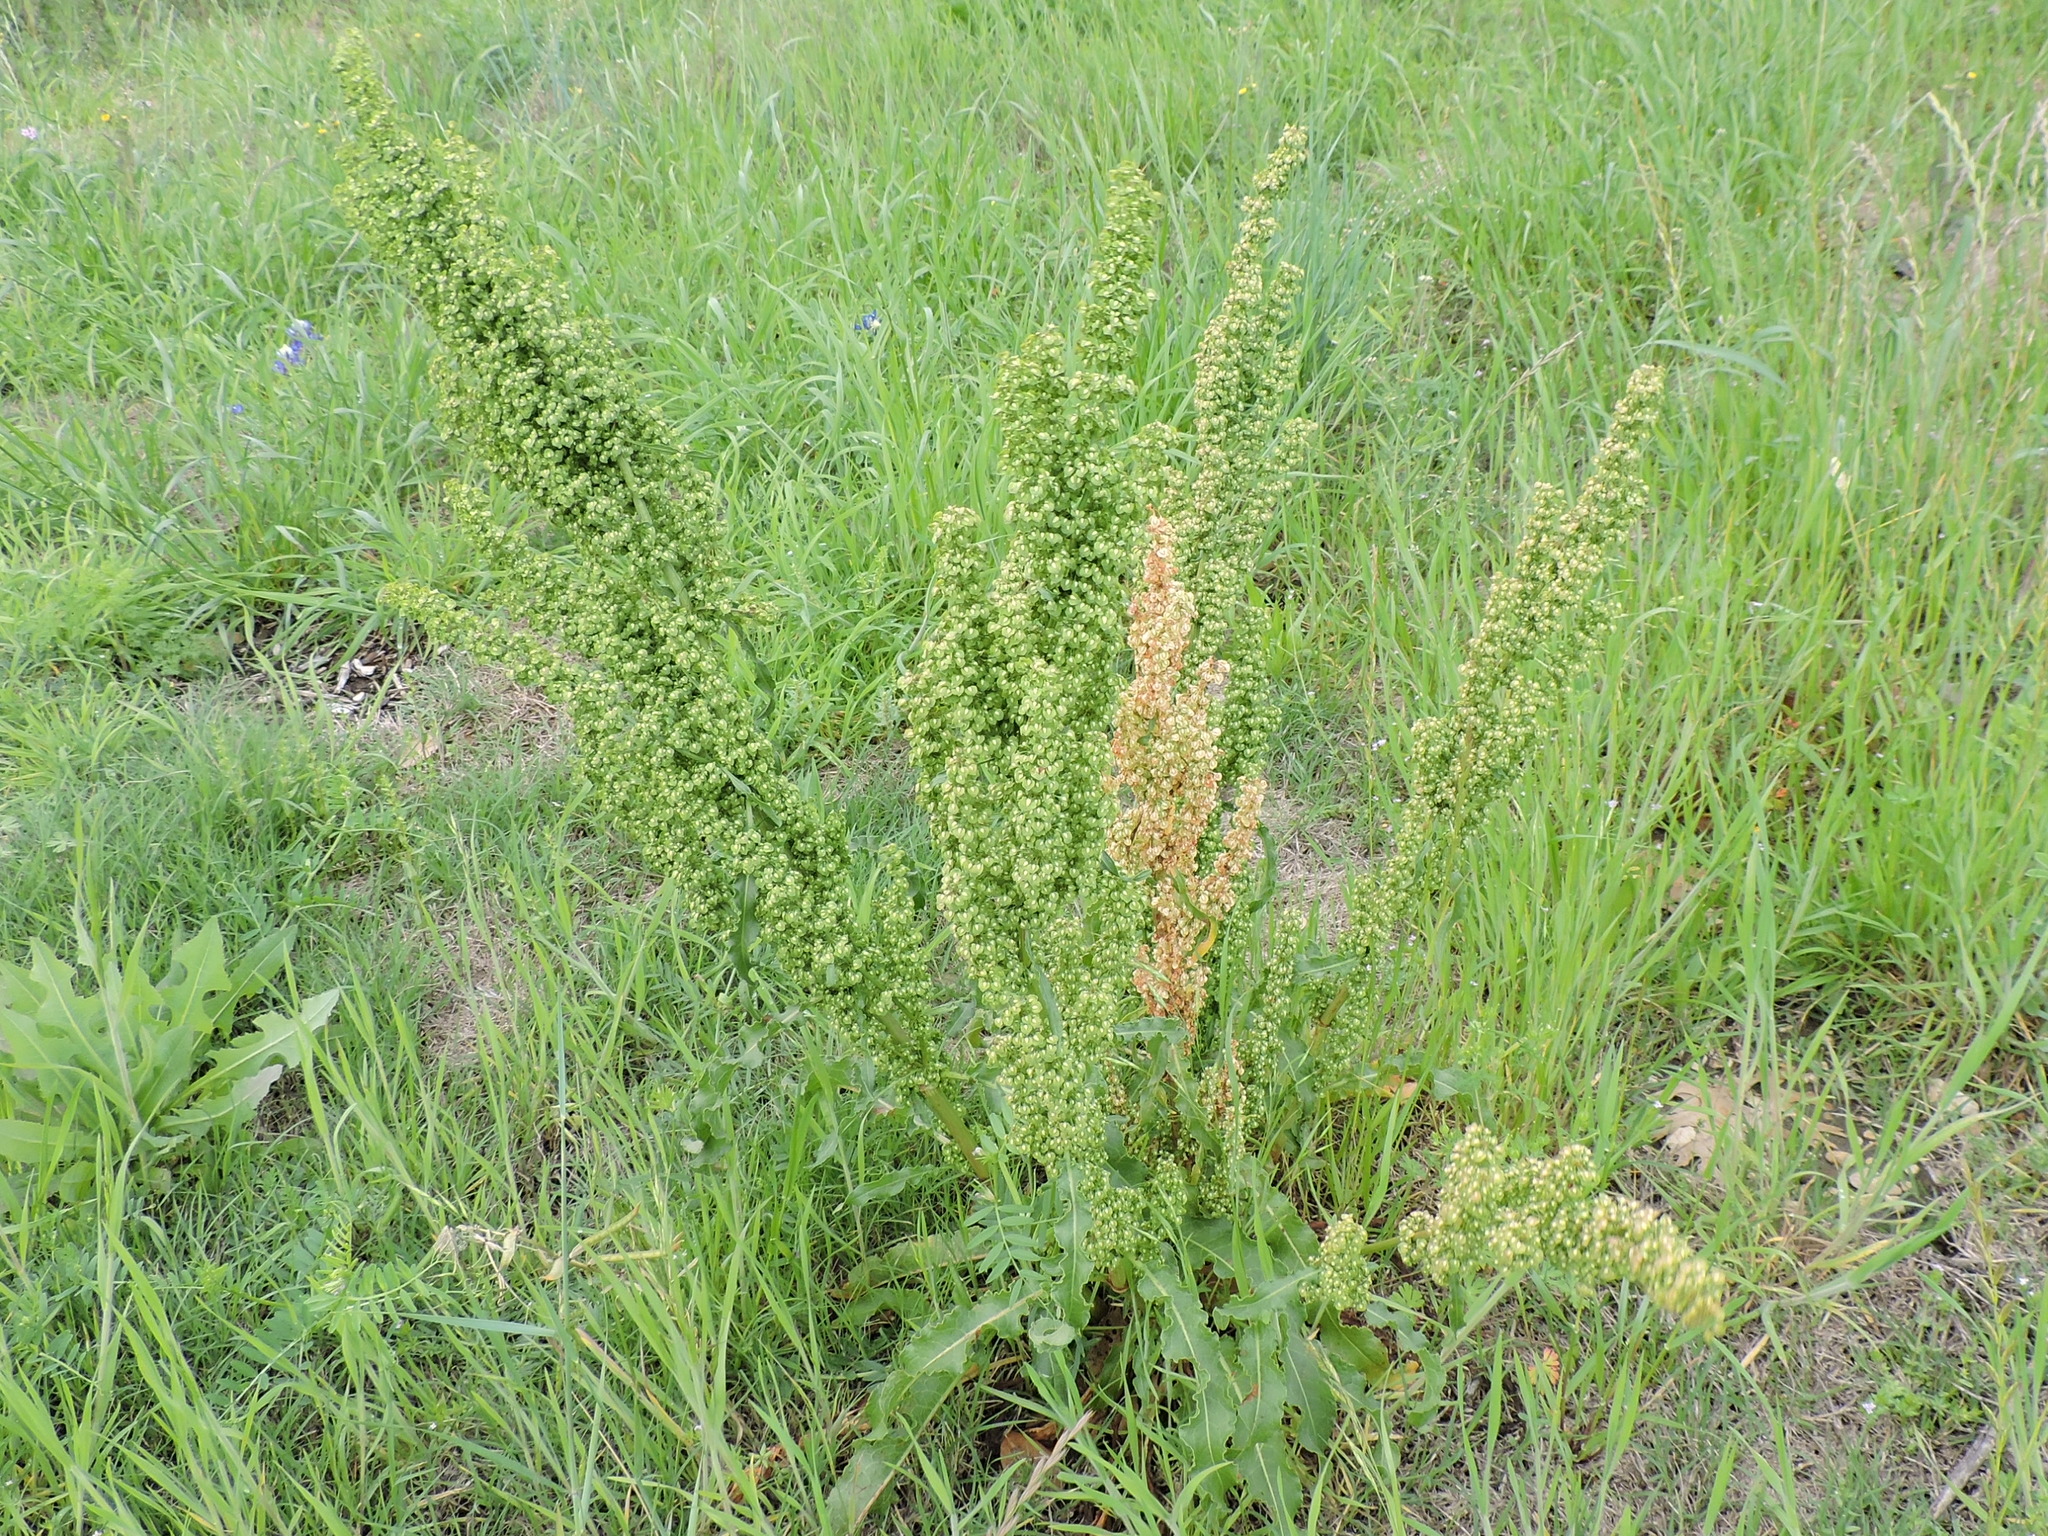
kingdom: Plantae
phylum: Tracheophyta
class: Magnoliopsida
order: Caryophyllales
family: Polygonaceae
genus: Rumex
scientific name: Rumex crispus
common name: Curled dock
